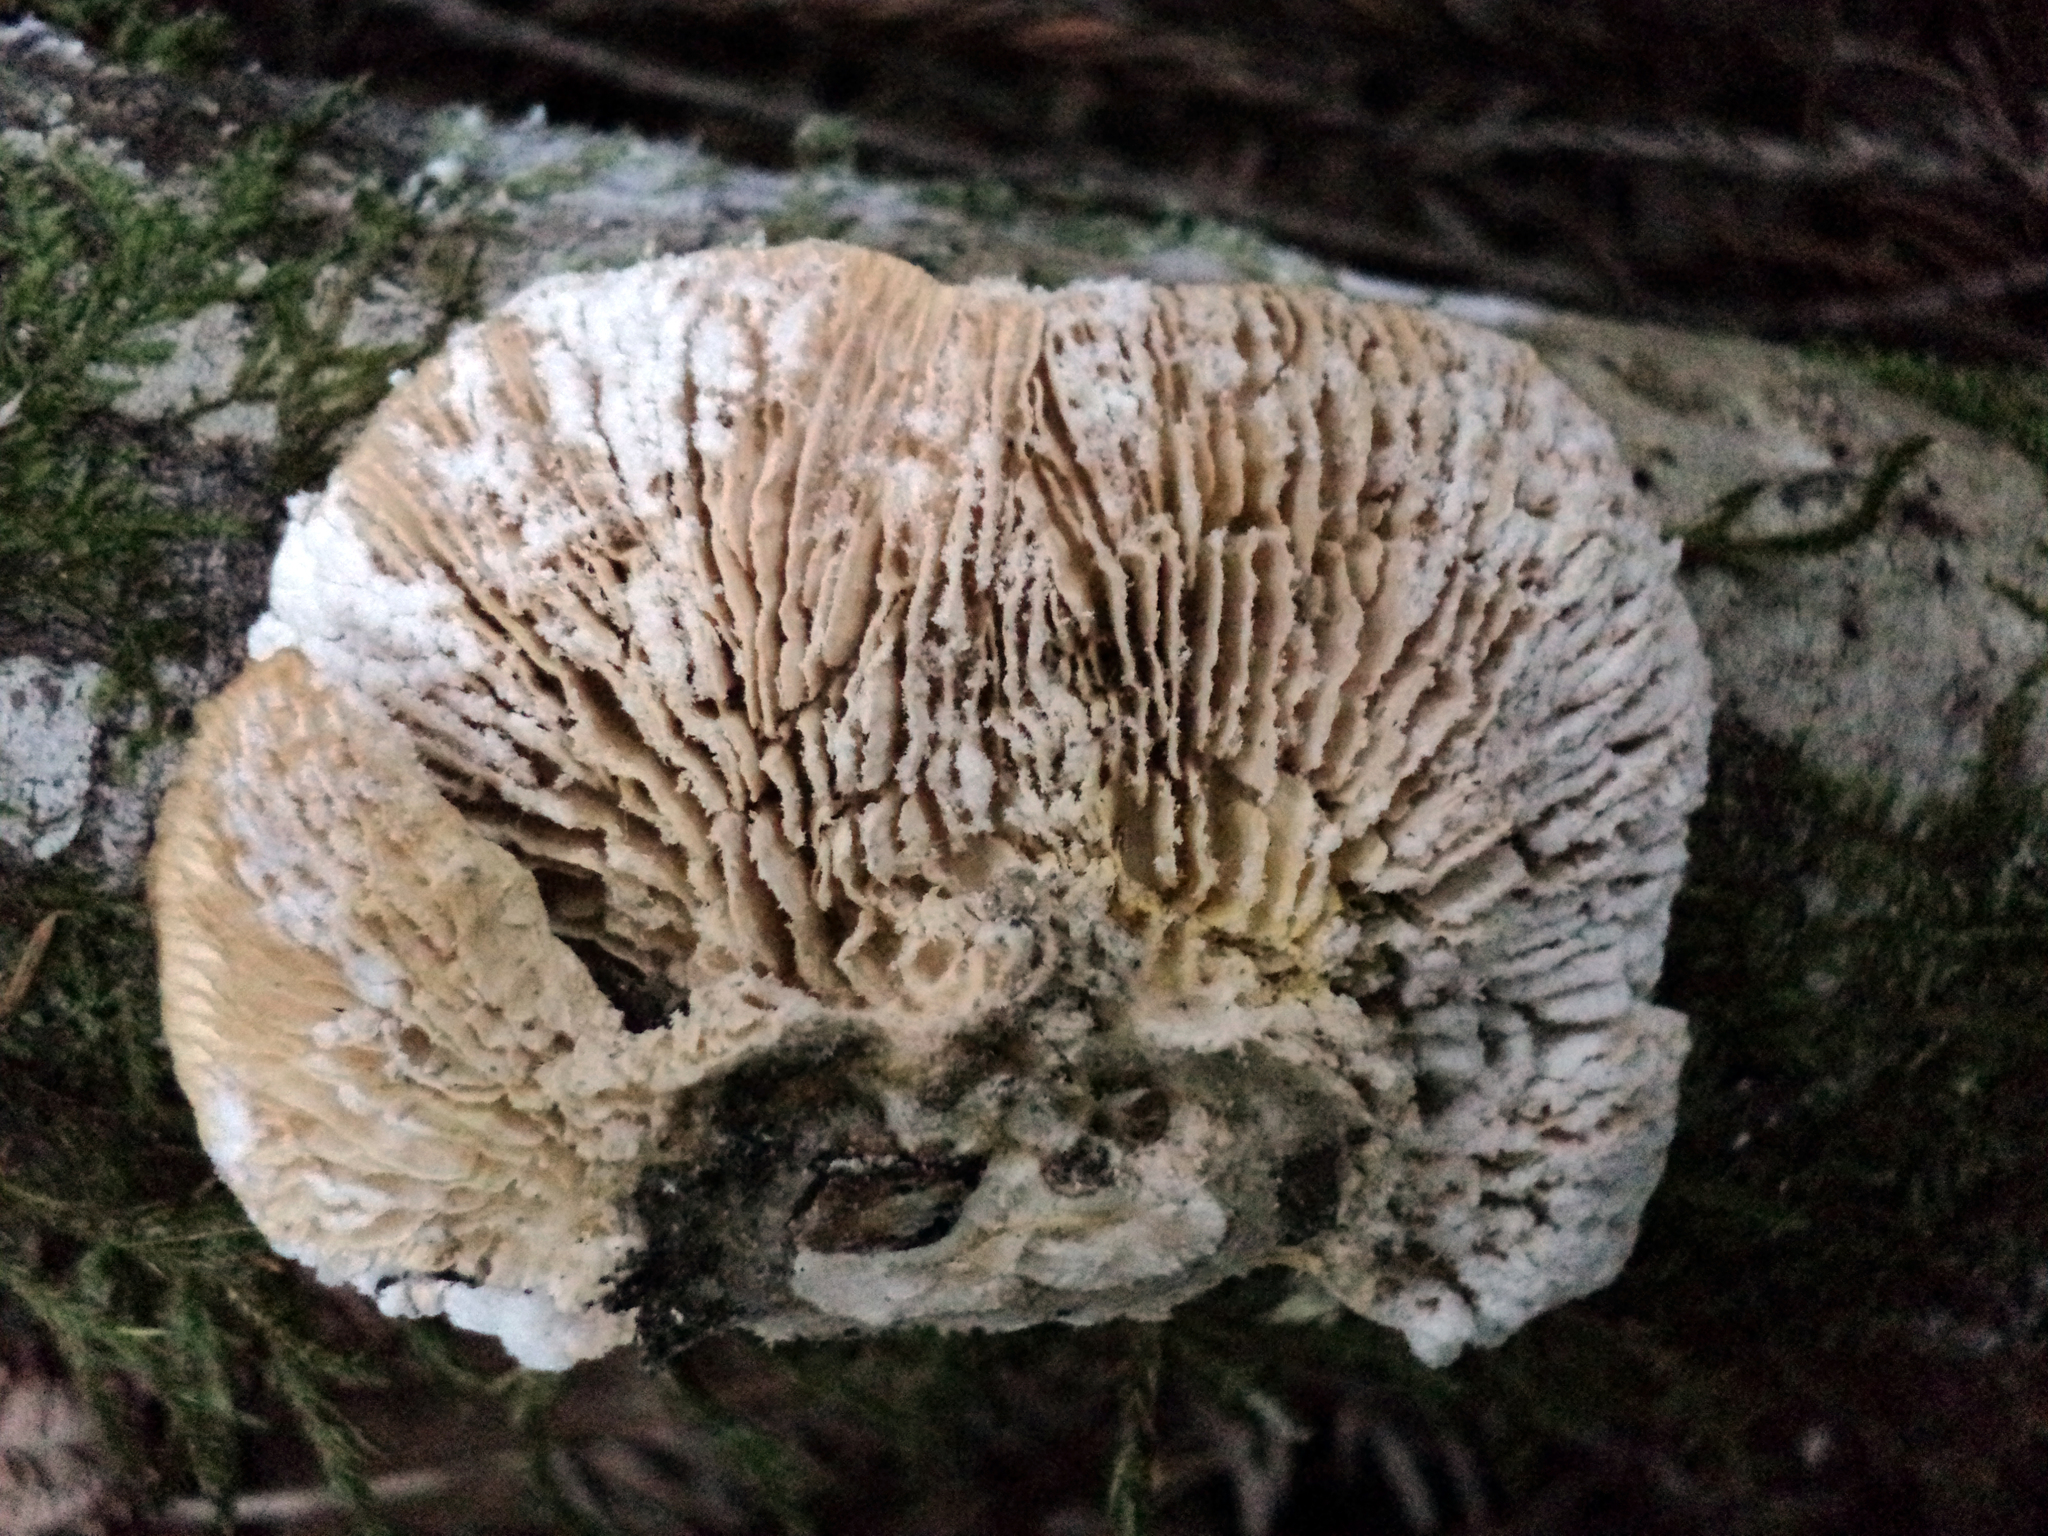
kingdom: Fungi
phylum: Basidiomycota
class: Agaricomycetes
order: Polyporales
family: Polyporaceae
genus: Lenzites
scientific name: Lenzites betulinus
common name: Birch mazegill
